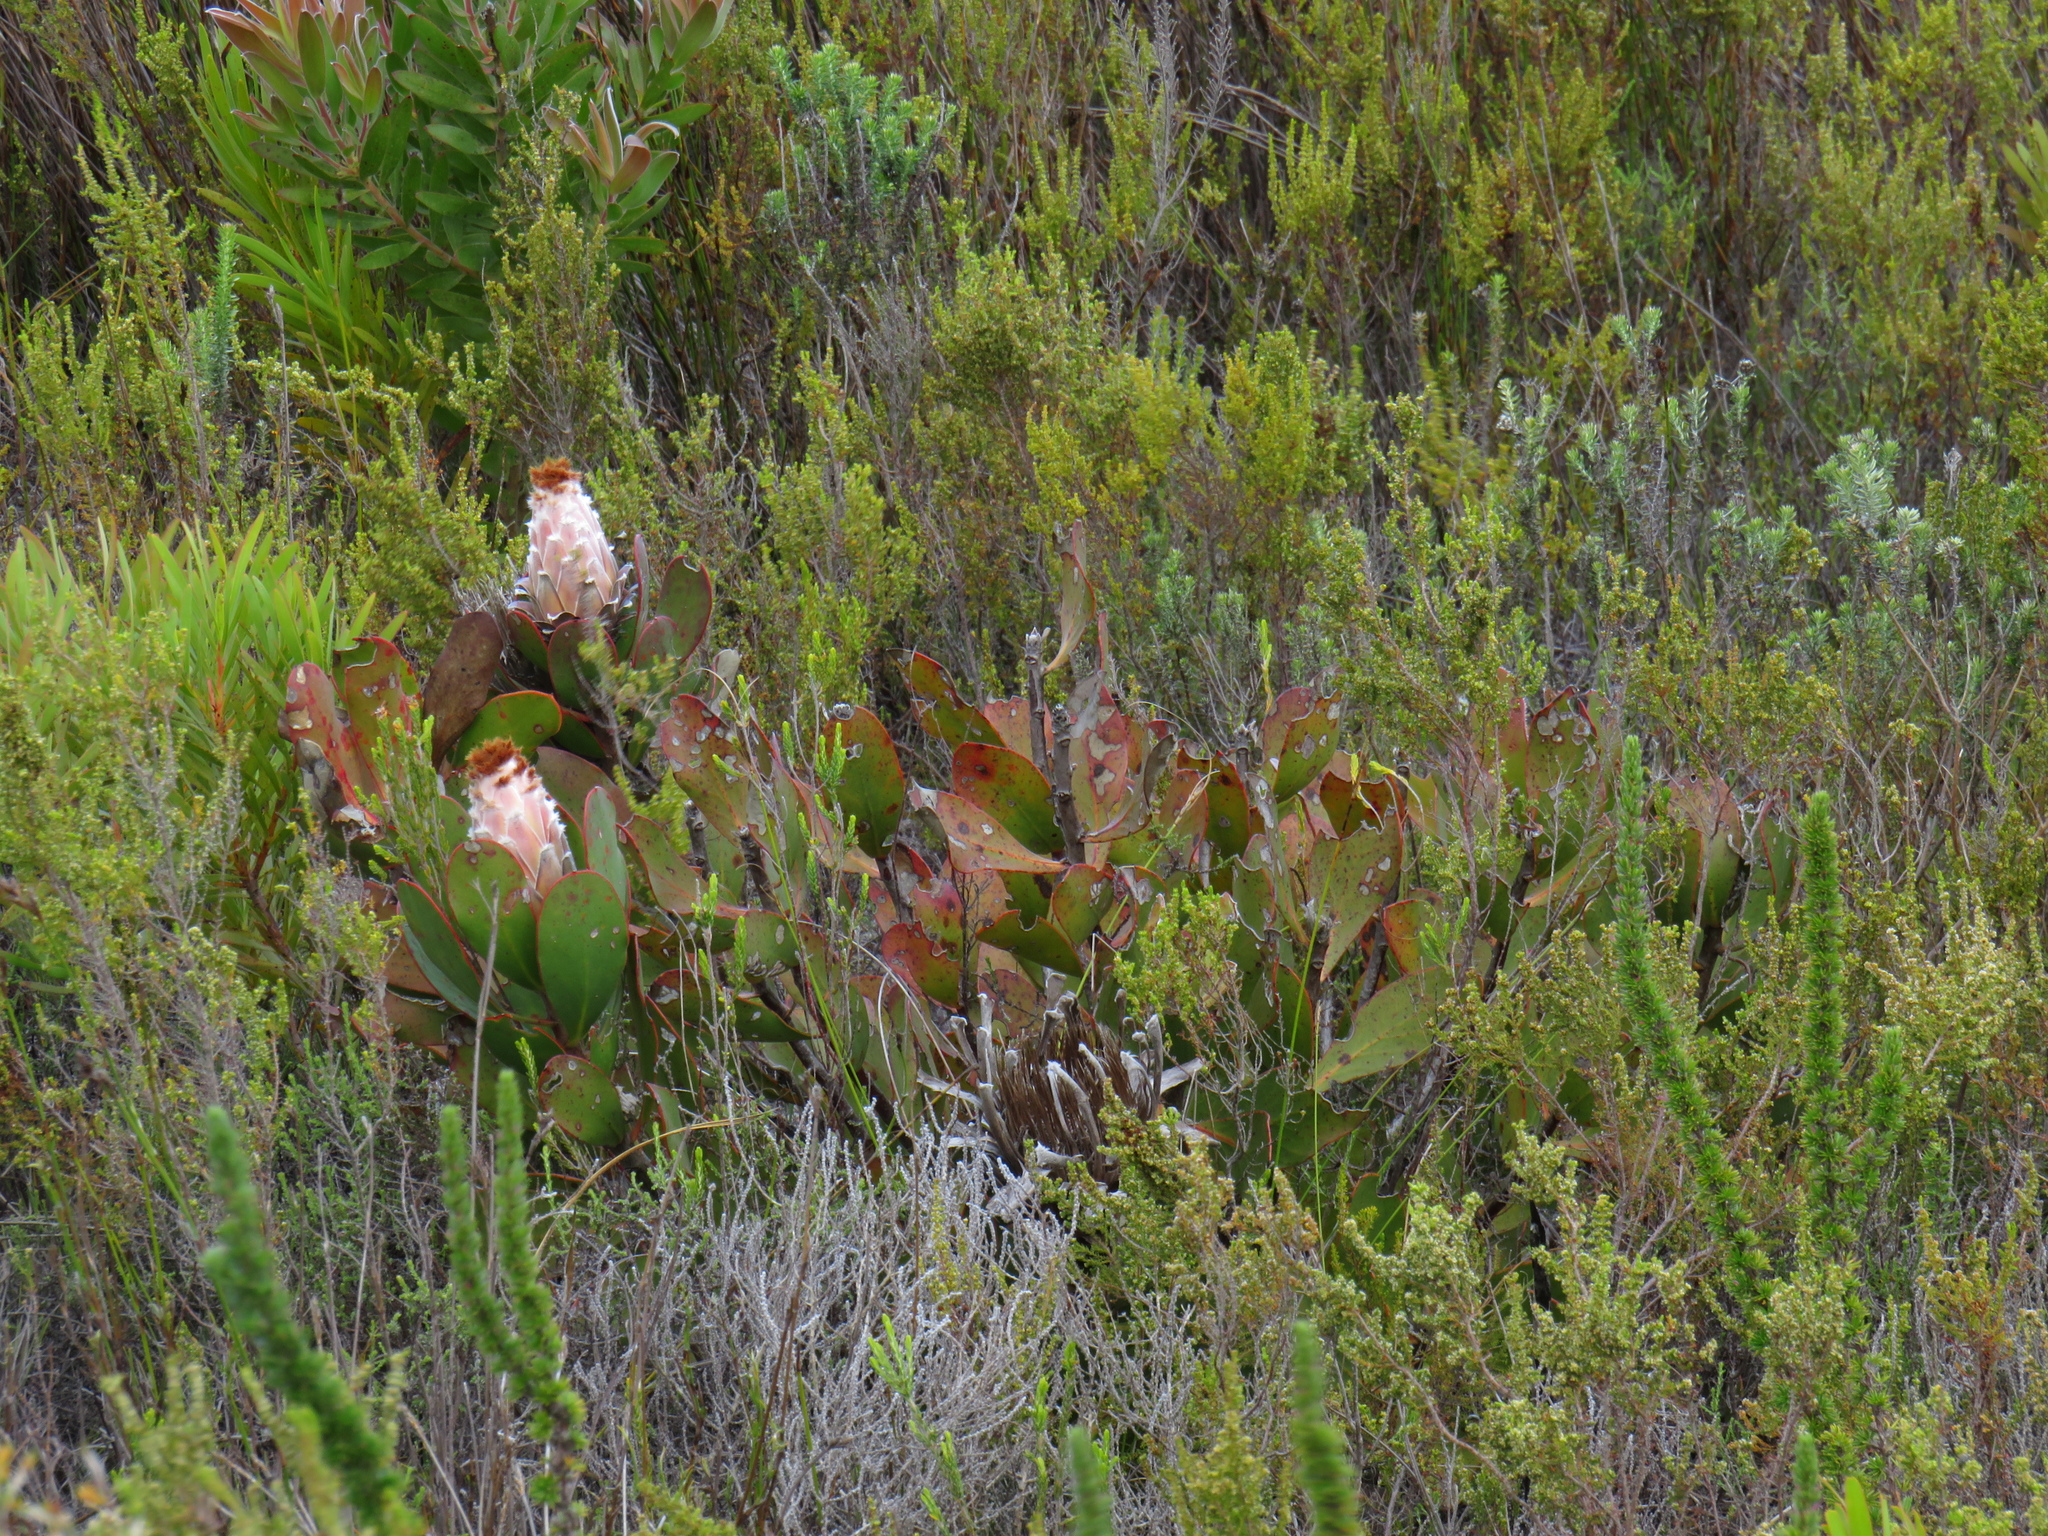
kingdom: Plantae
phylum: Tracheophyta
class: Magnoliopsida
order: Proteales
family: Proteaceae
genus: Protea
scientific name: Protea speciosa
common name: Brown-beard sugarbush
